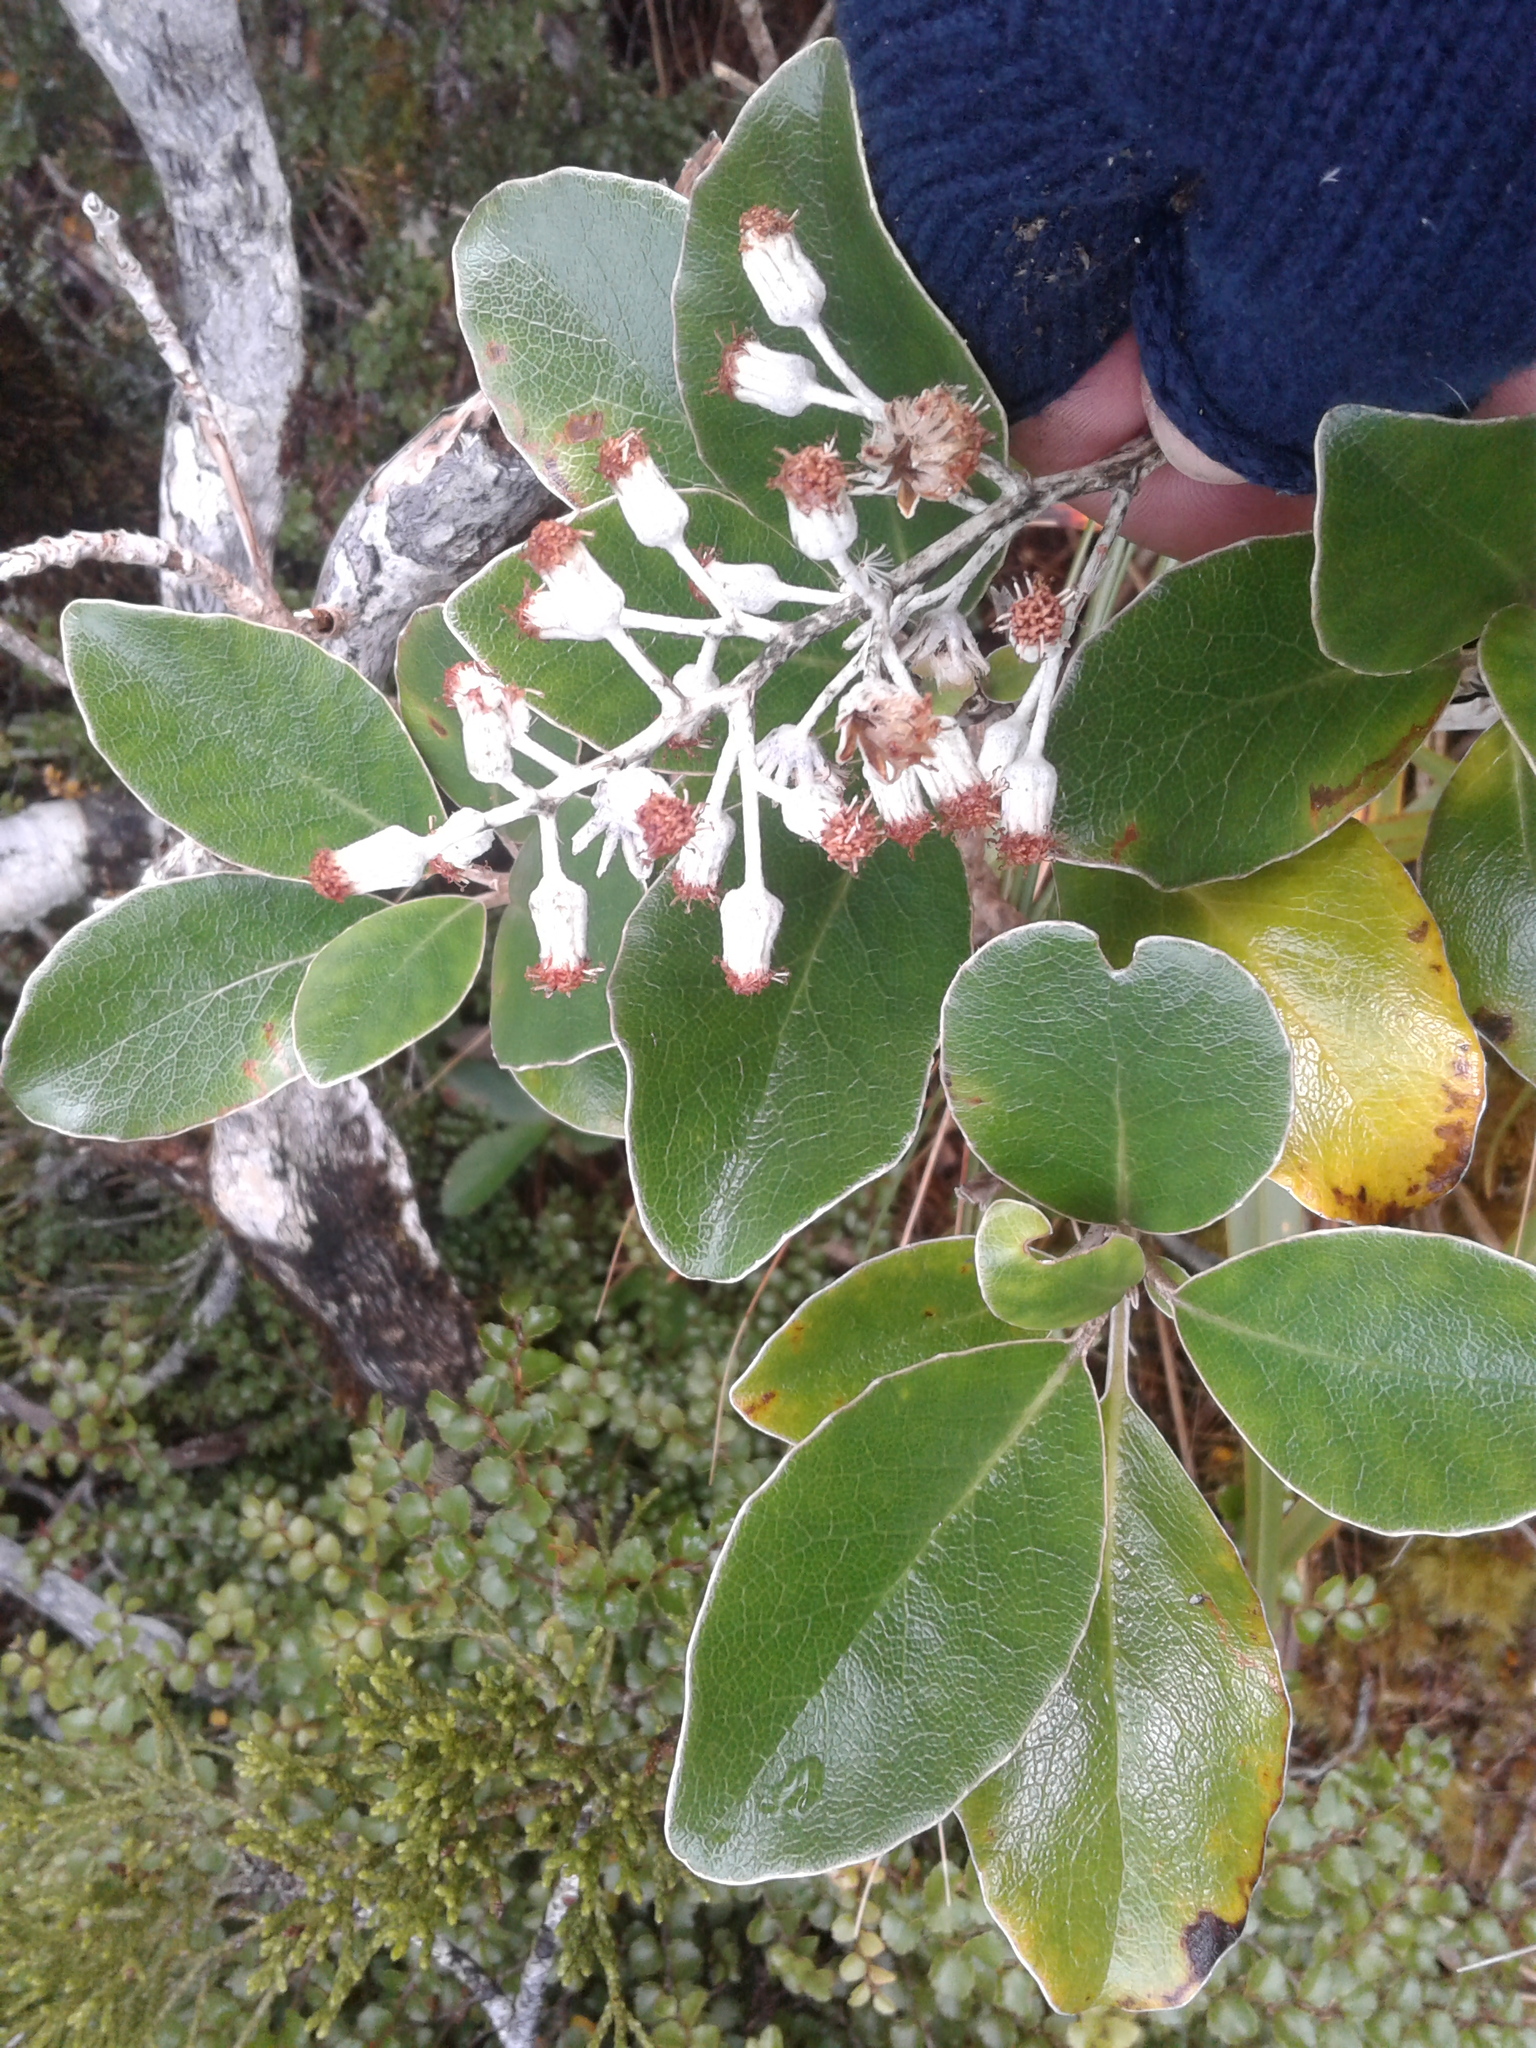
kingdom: Plantae
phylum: Tracheophyta
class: Magnoliopsida
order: Asterales
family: Asteraceae
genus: Brachyglottis
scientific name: Brachyglottis buchananii
